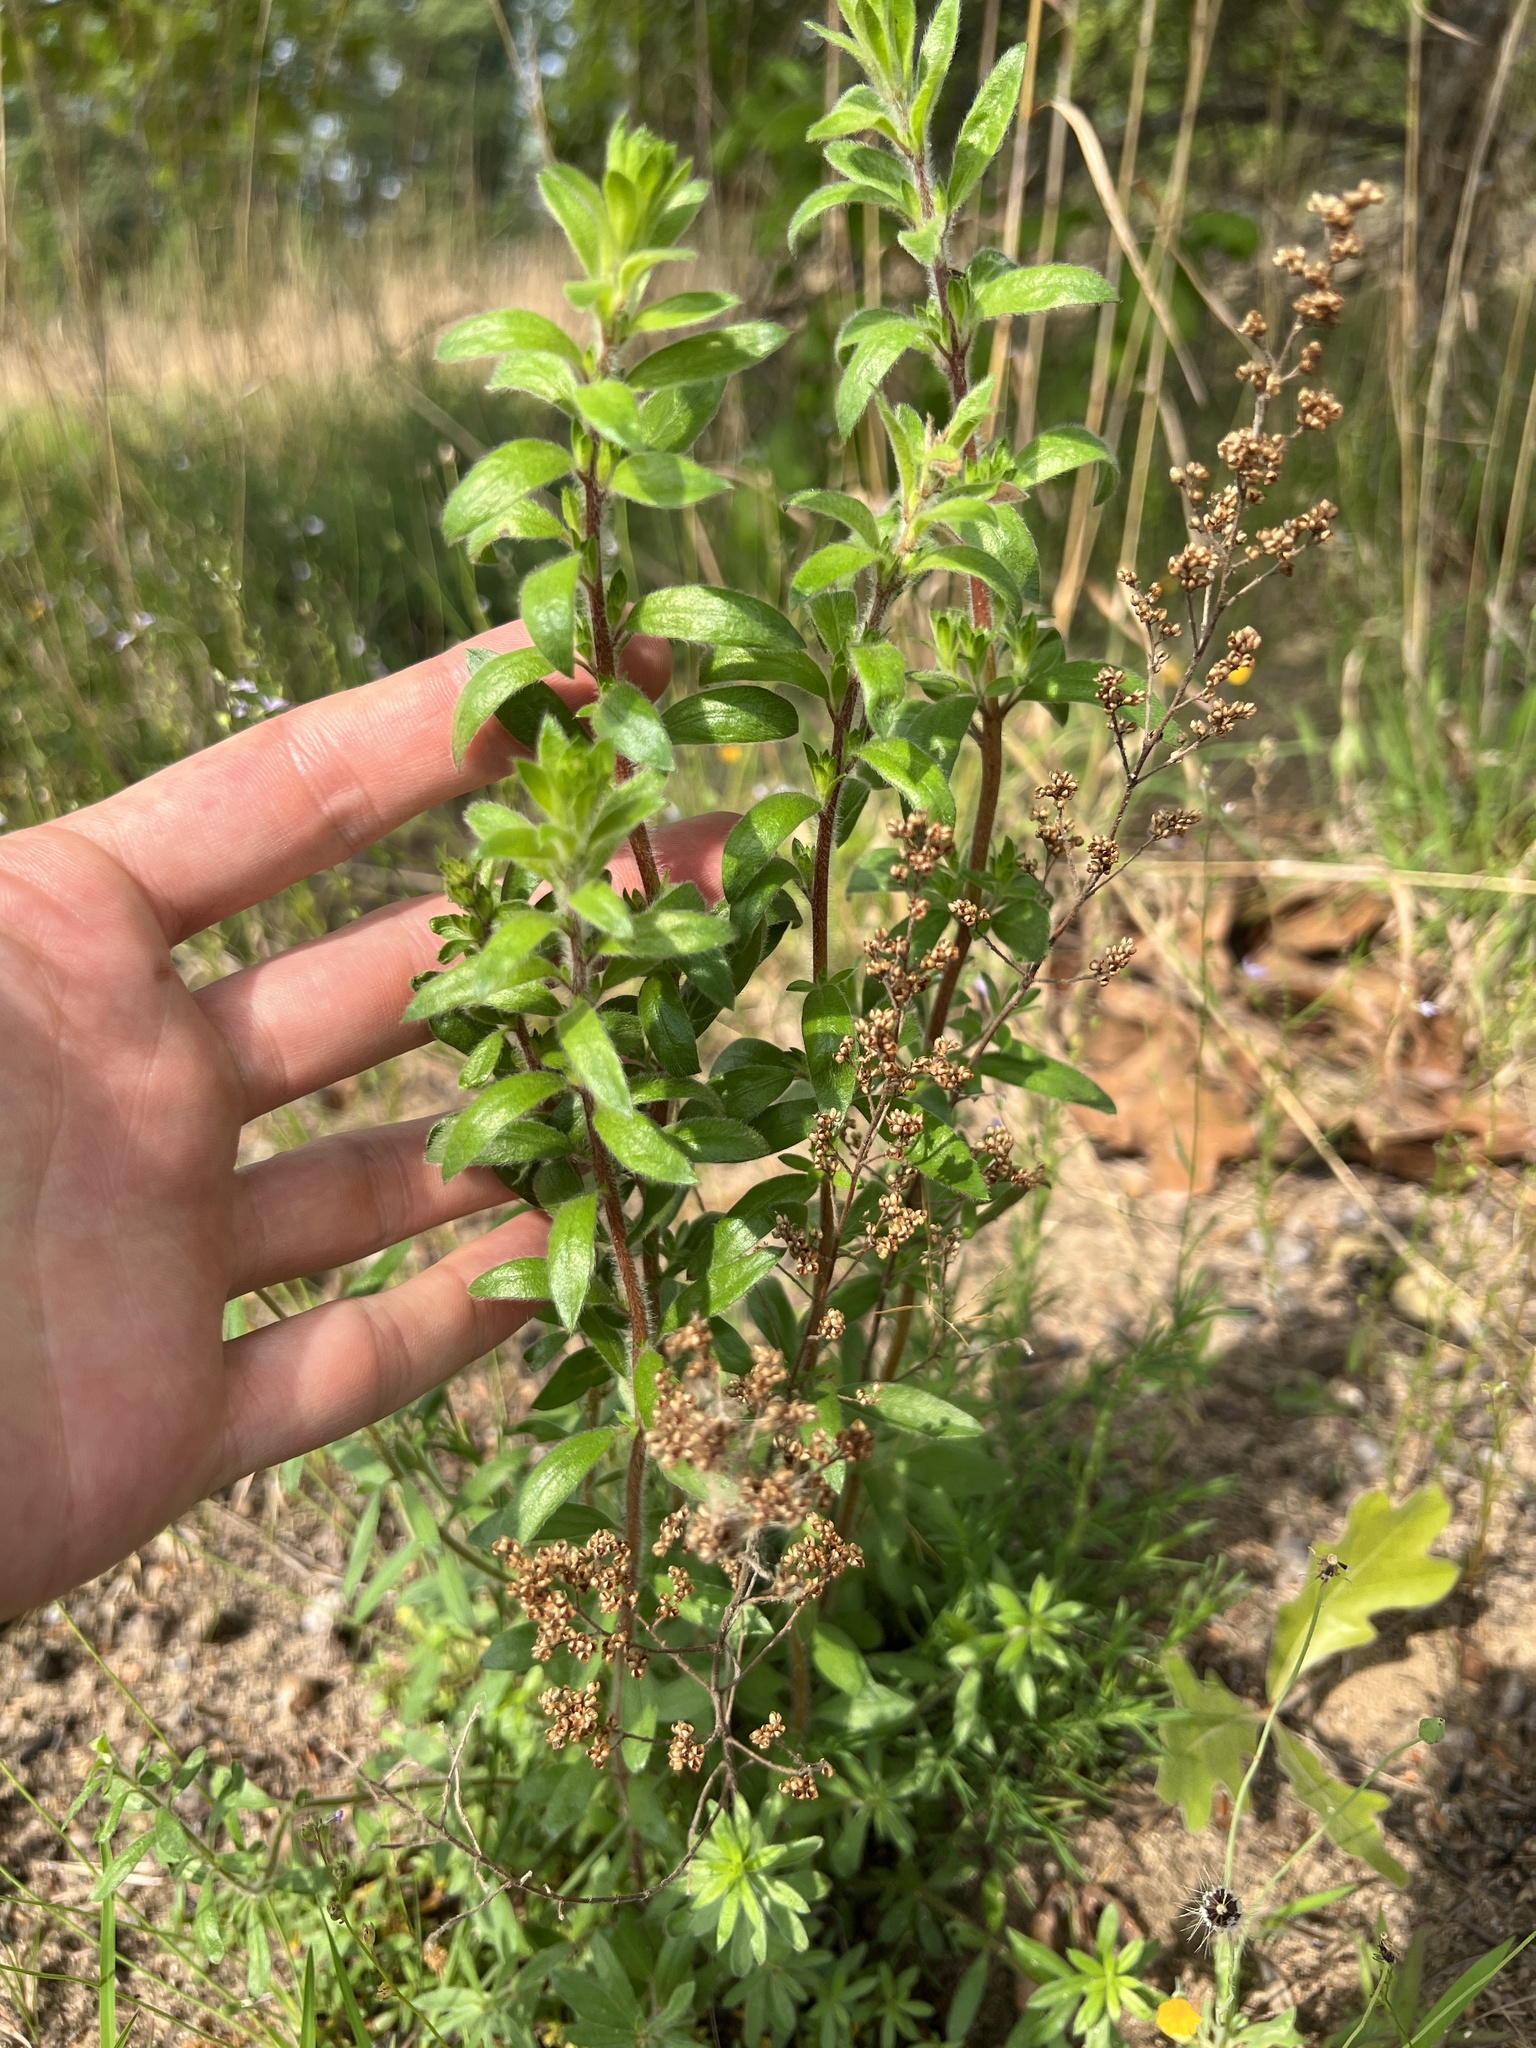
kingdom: Plantae
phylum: Tracheophyta
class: Magnoliopsida
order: Malvales
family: Cistaceae
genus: Lechea
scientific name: Lechea mucronata
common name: Hairy pinweed
